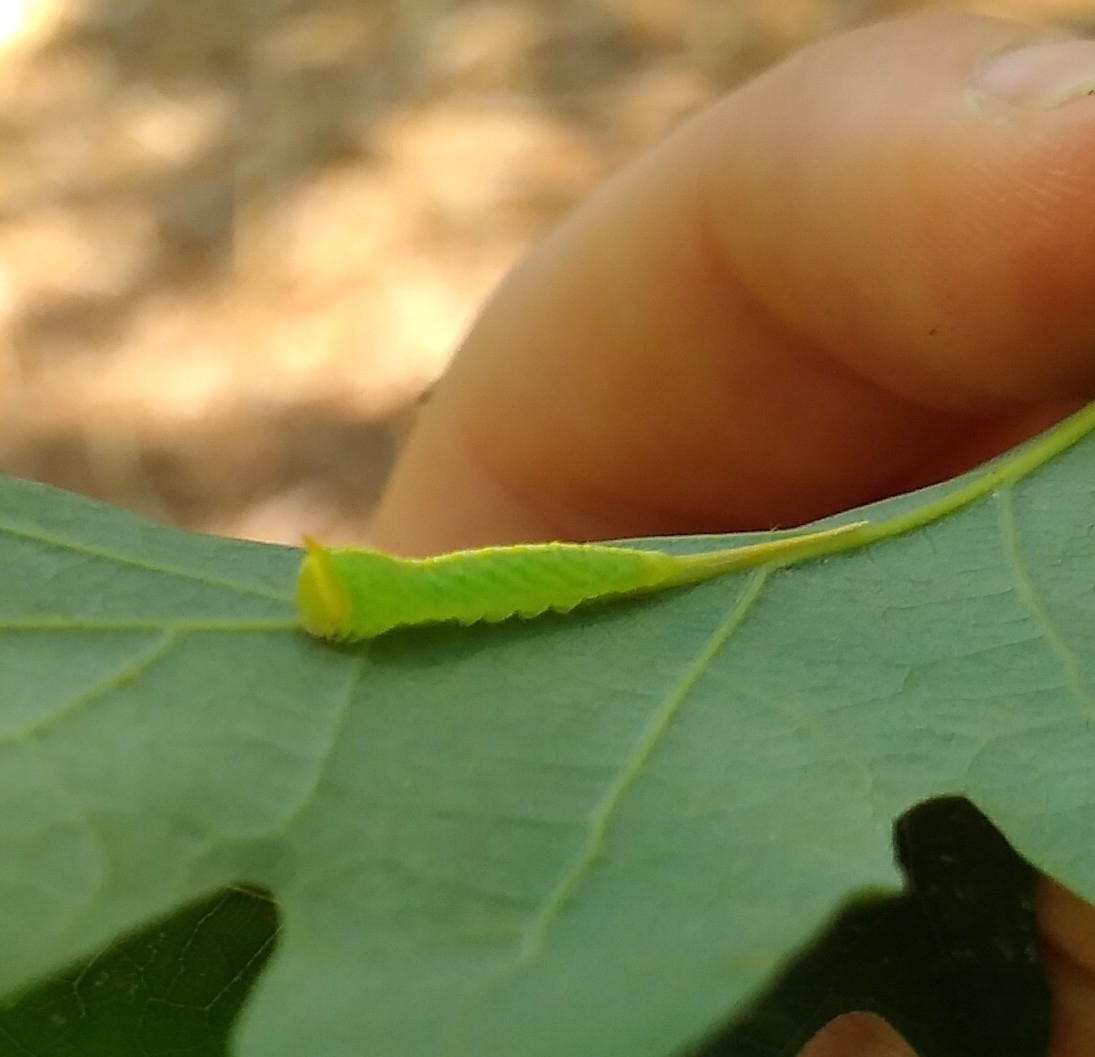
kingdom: Animalia
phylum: Arthropoda
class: Insecta
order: Lepidoptera
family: Notodontidae
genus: Macrurocampa
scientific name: Macrurocampa marthesia
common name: Mottled prominent
